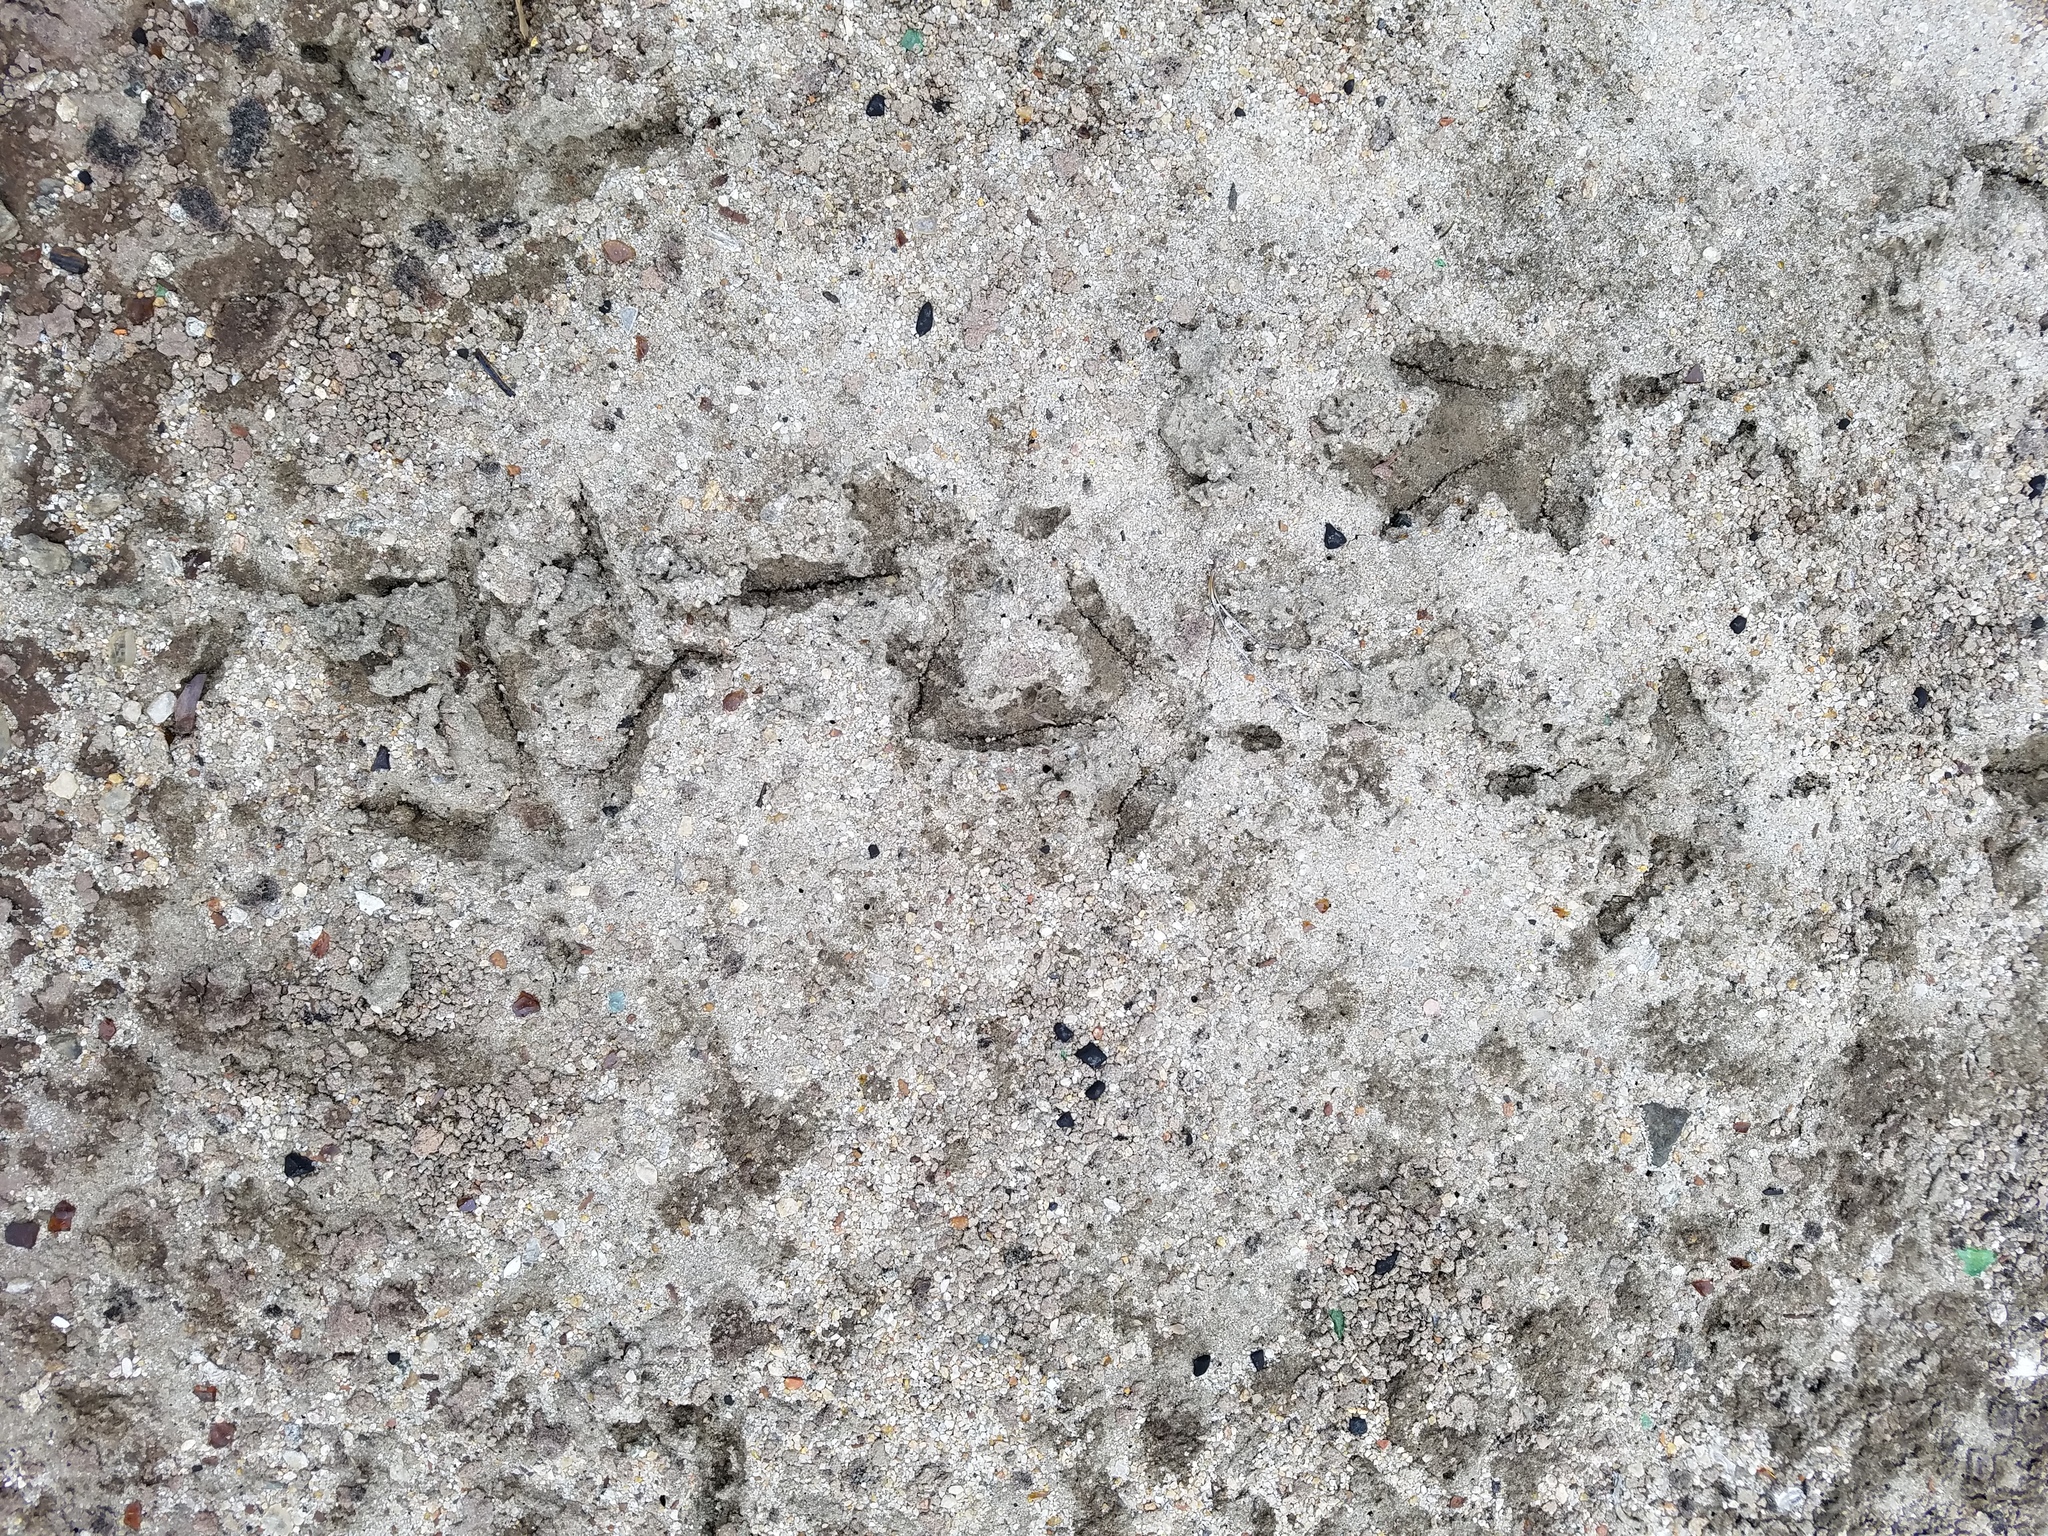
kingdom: Animalia
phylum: Chordata
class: Aves
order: Galliformes
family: Phasianidae
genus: Meleagris
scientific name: Meleagris gallopavo
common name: Wild turkey
